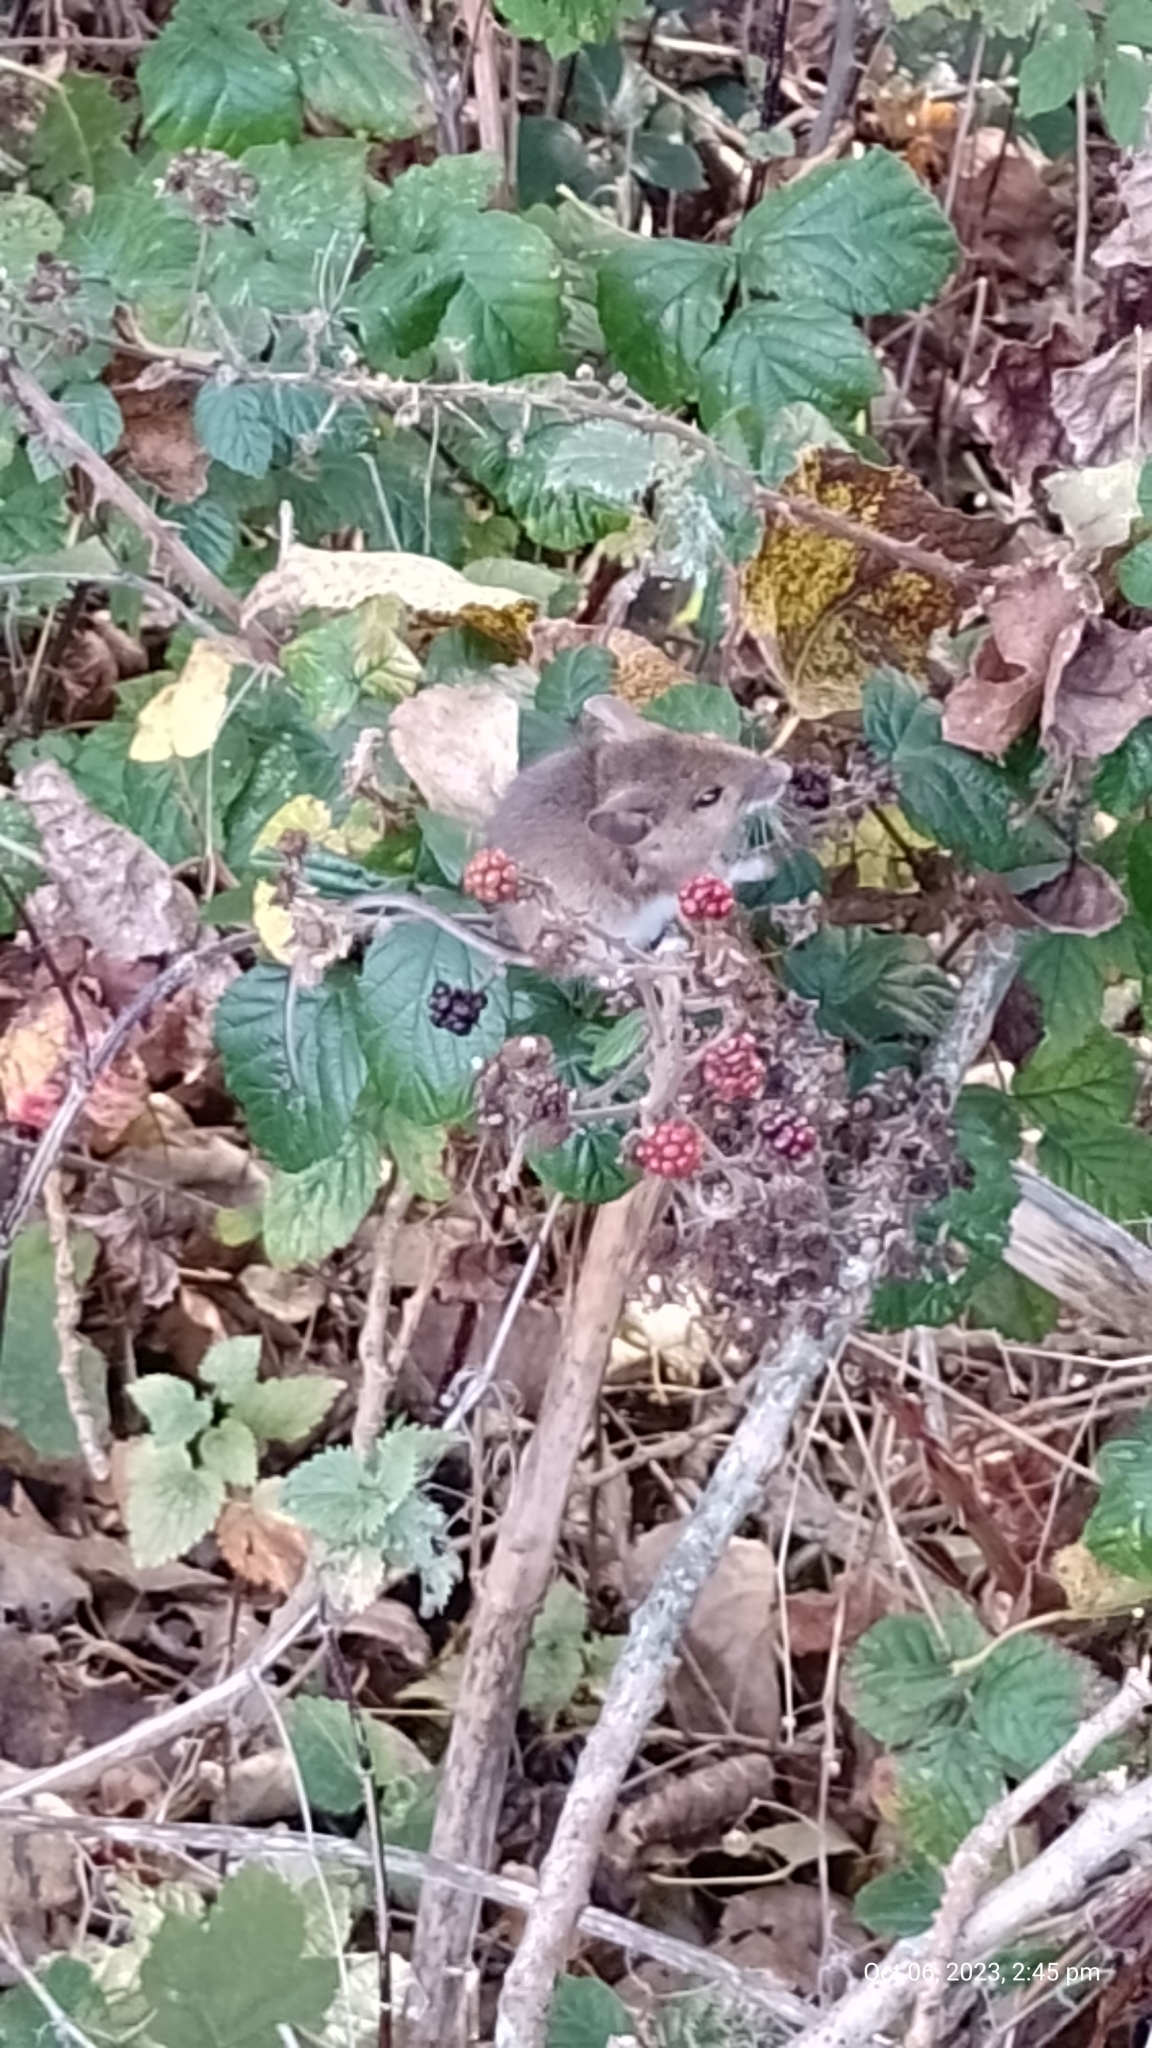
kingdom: Animalia
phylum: Chordata
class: Mammalia
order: Rodentia
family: Muridae
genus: Apodemus
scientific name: Apodemus sylvaticus
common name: Wood mouse
